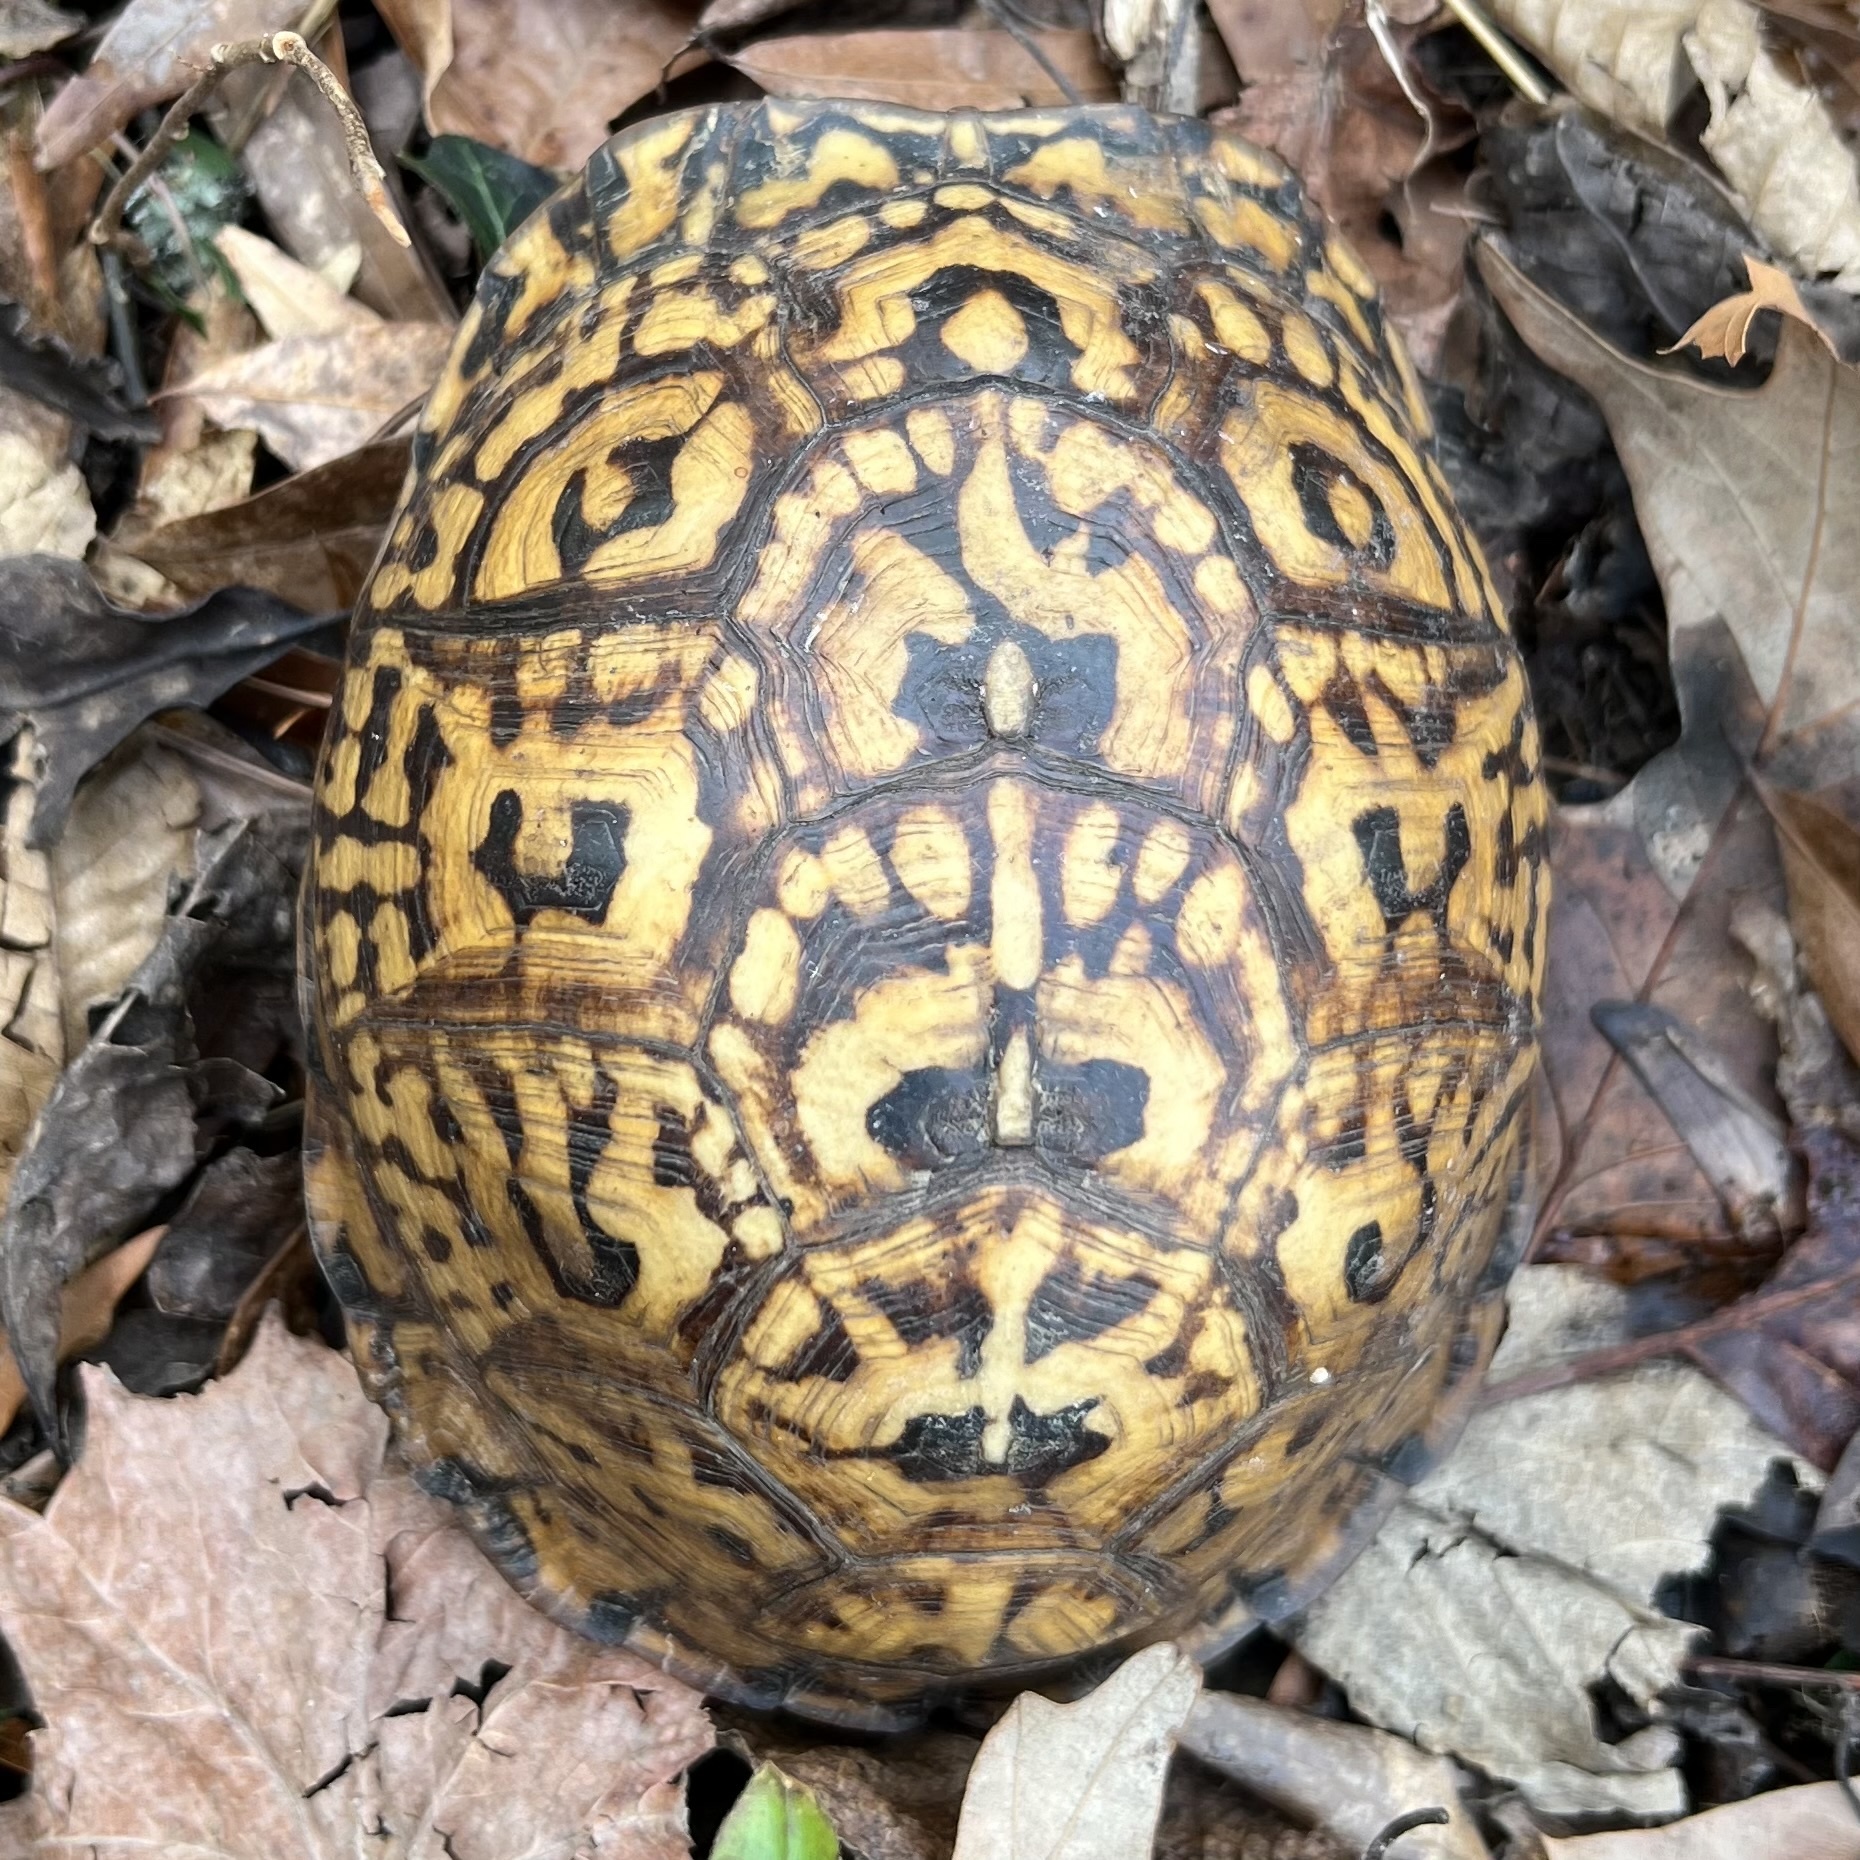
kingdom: Animalia
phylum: Chordata
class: Testudines
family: Emydidae
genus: Terrapene
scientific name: Terrapene carolina
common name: Common box turtle
